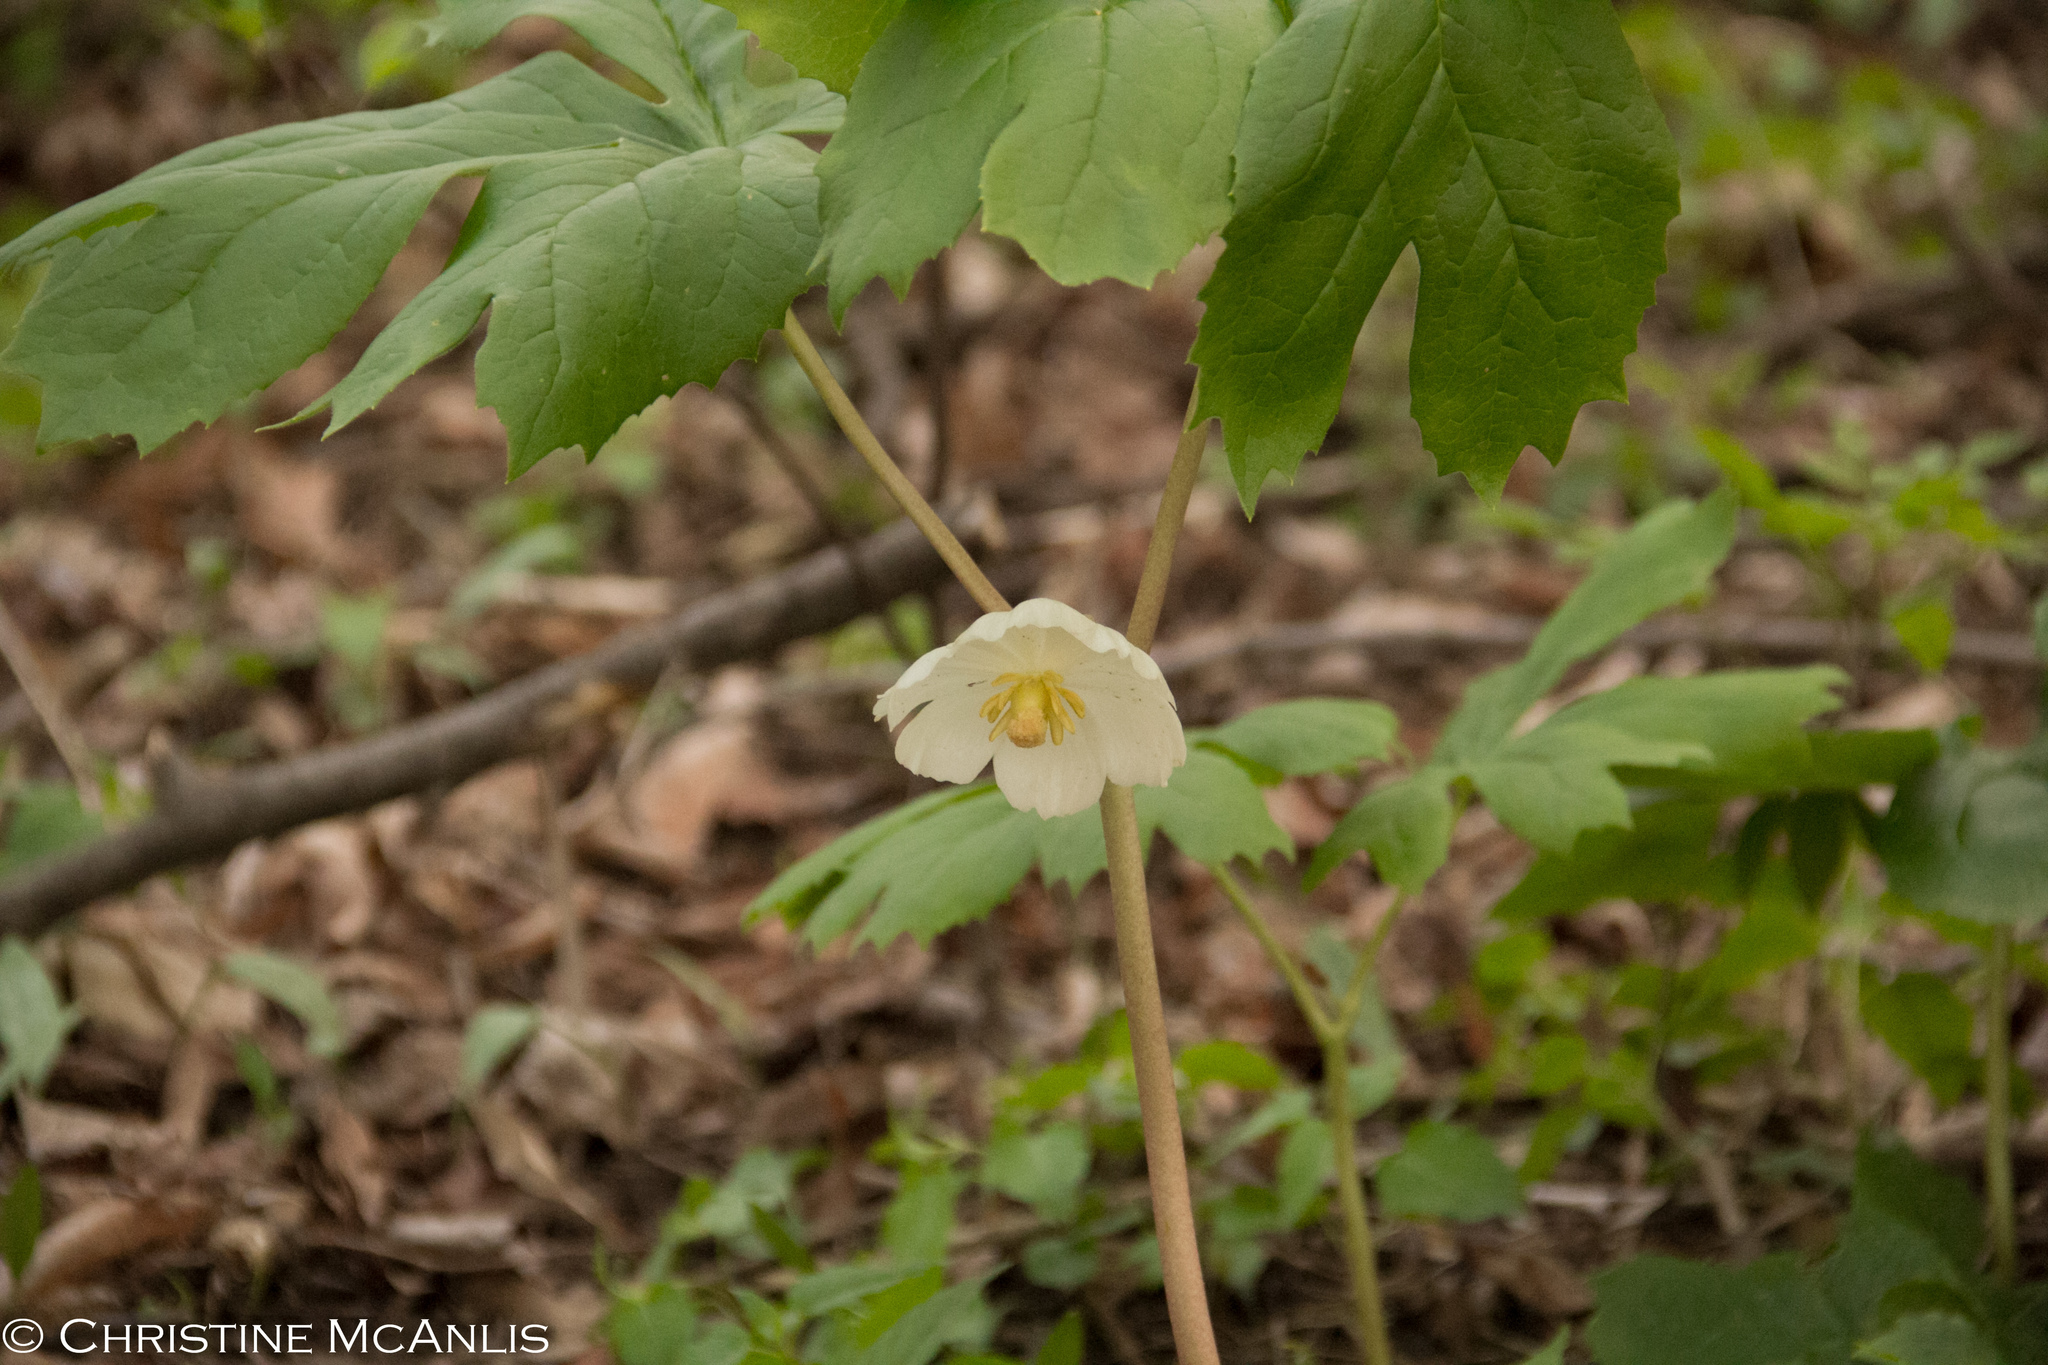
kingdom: Plantae
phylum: Tracheophyta
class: Magnoliopsida
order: Ranunculales
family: Berberidaceae
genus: Podophyllum
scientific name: Podophyllum peltatum
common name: Wild mandrake
